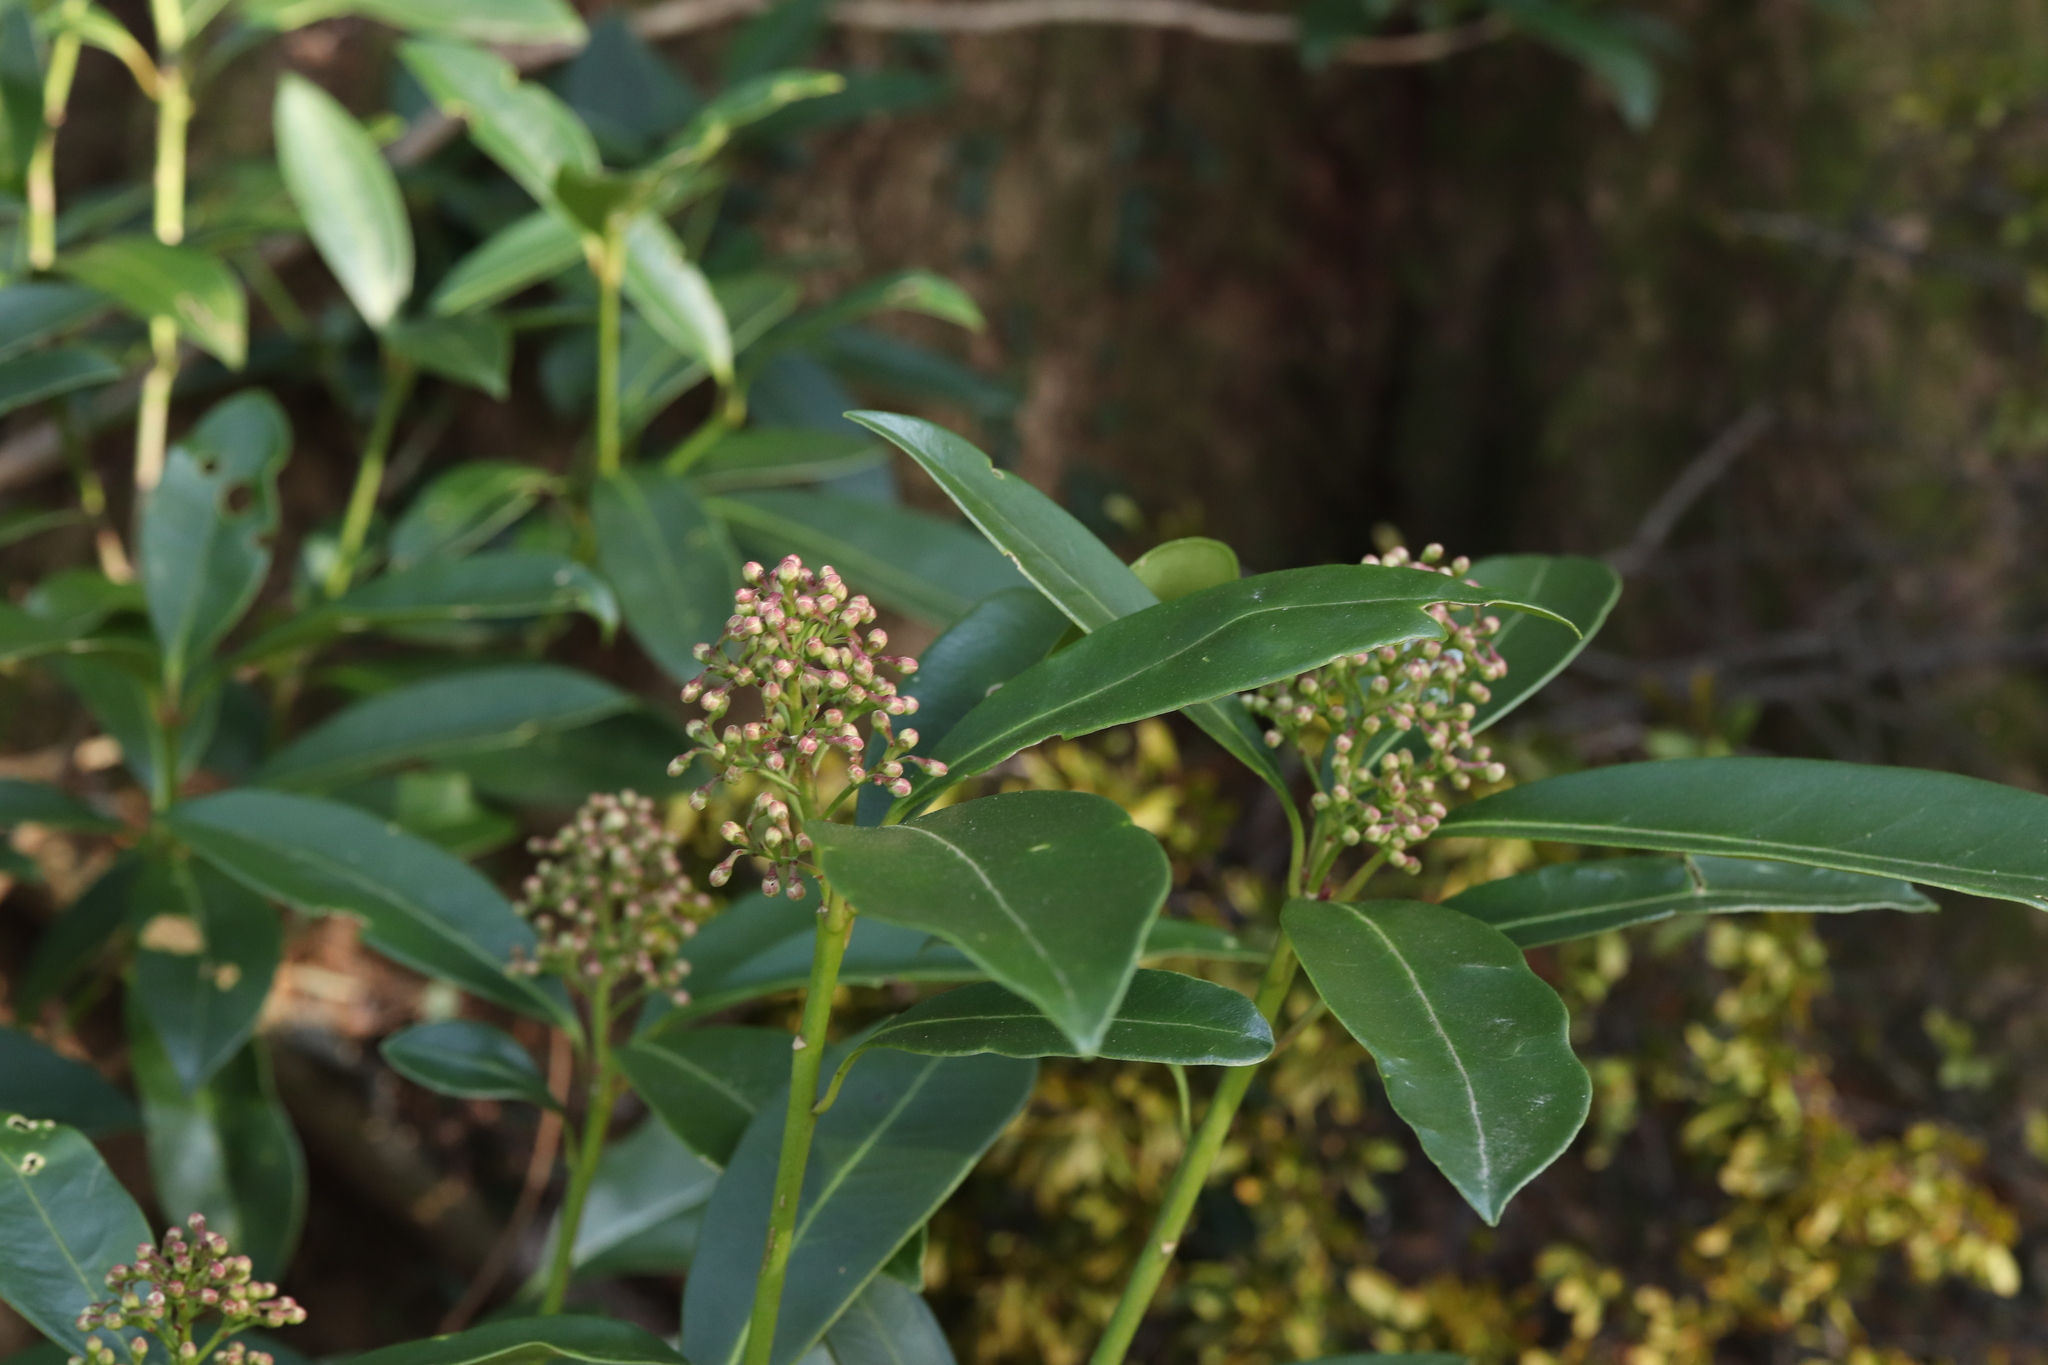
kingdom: Plantae
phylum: Tracheophyta
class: Magnoliopsida
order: Sapindales
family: Rutaceae
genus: Skimmia
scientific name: Skimmia japonica
